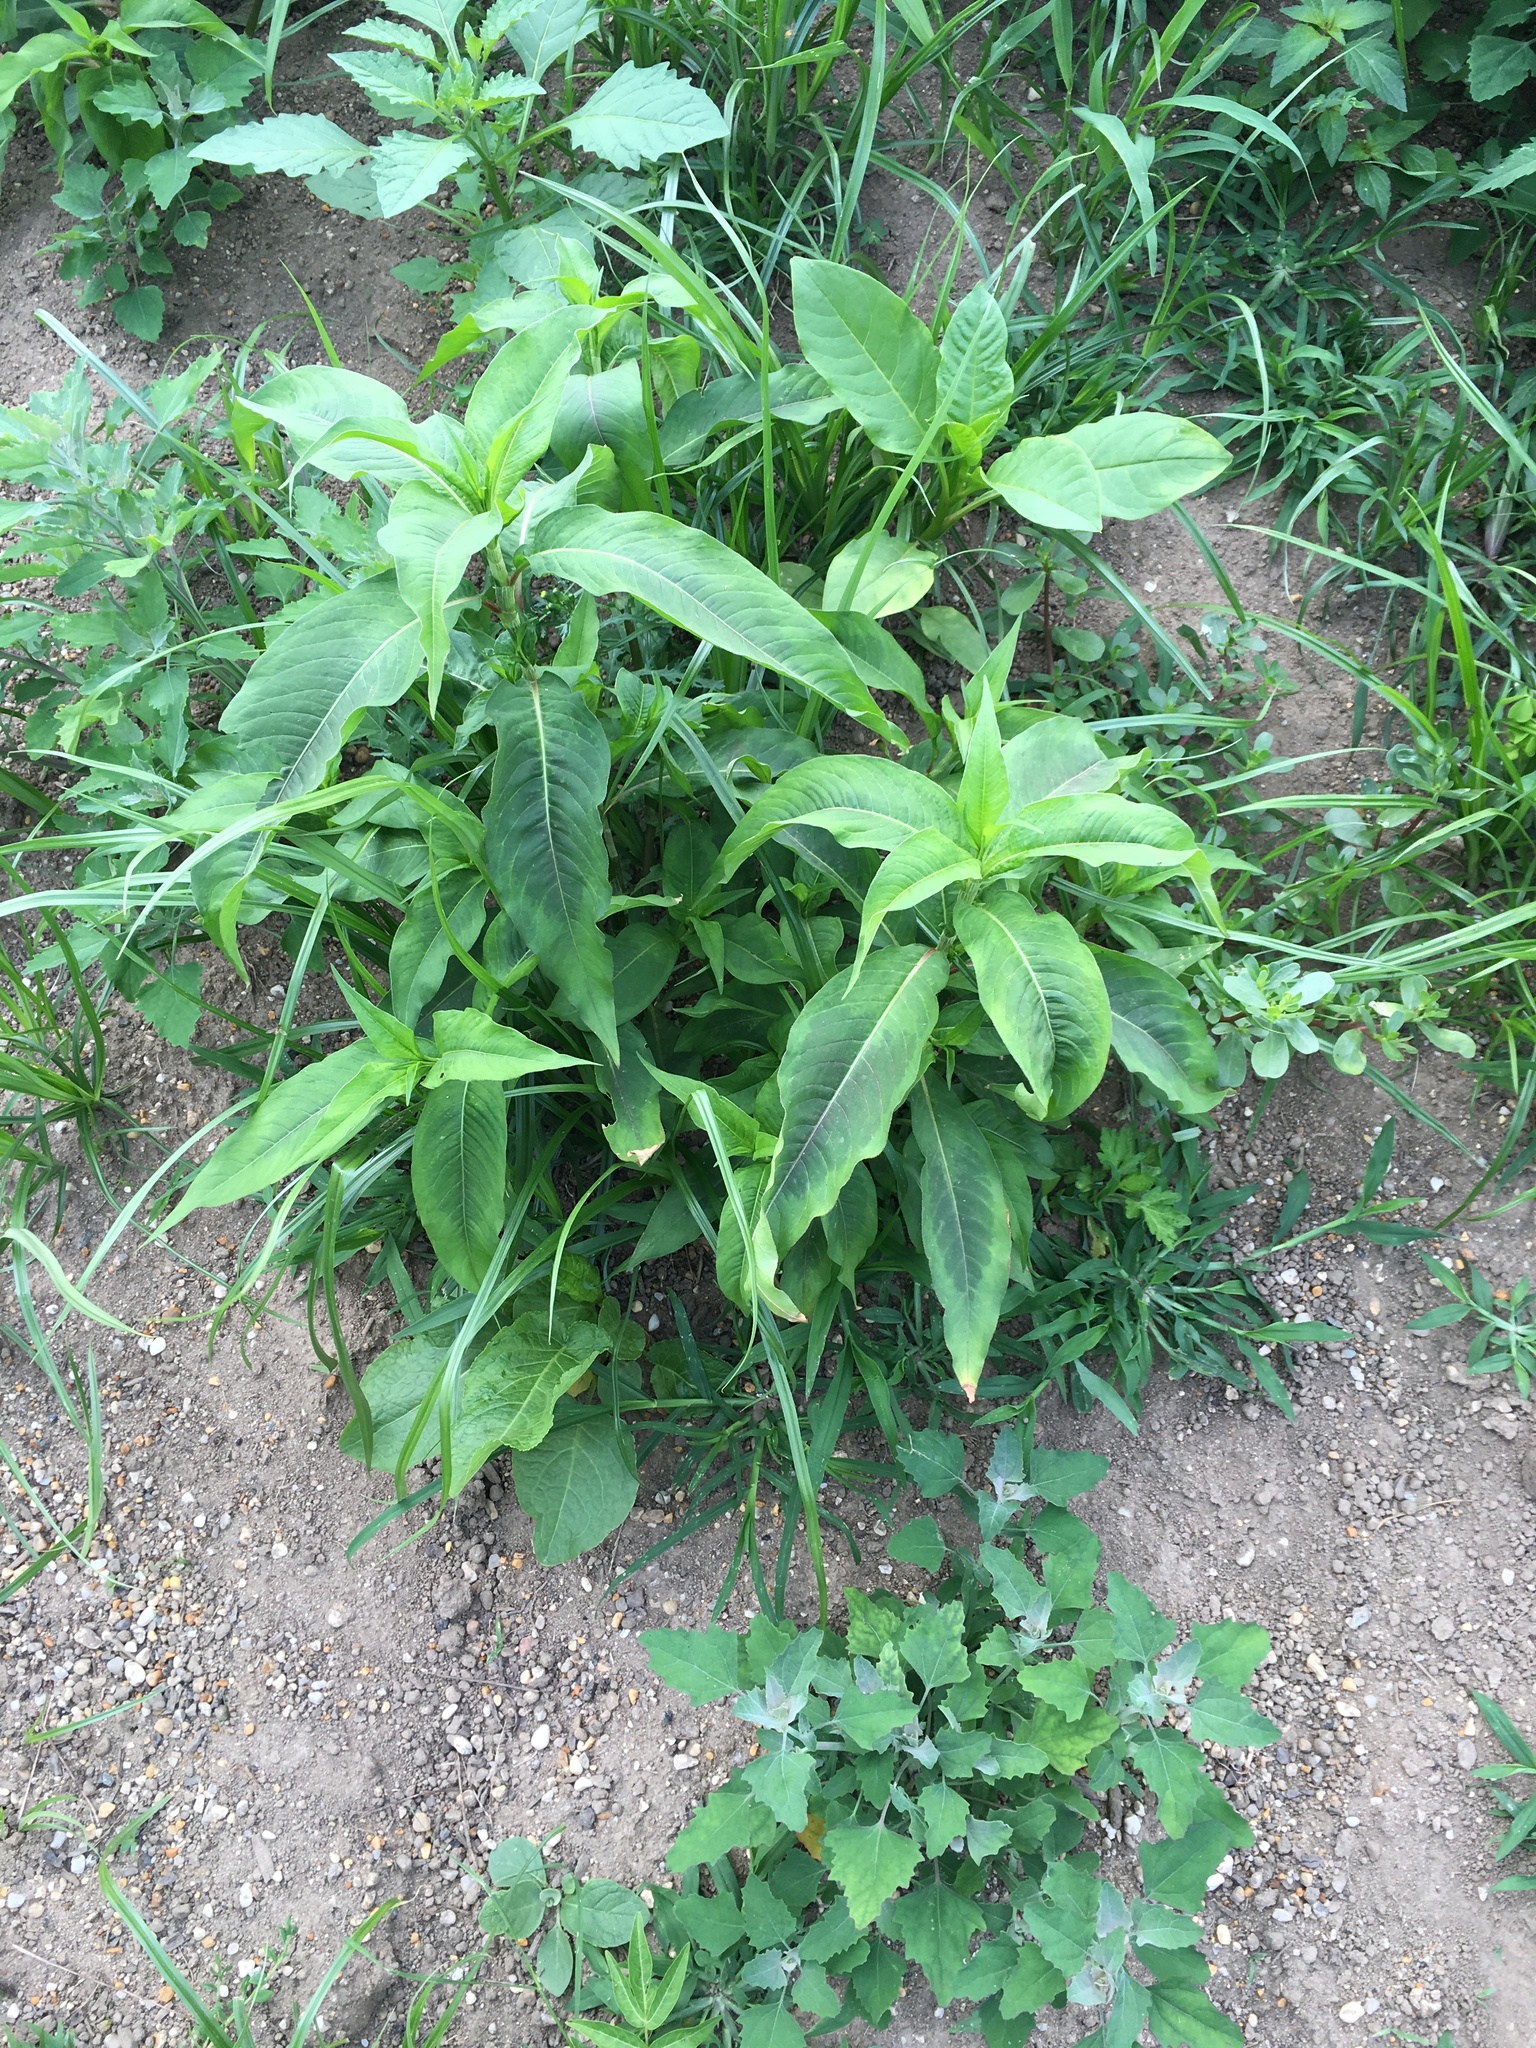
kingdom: Plantae
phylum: Tracheophyta
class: Magnoliopsida
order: Caryophyllales
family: Polygonaceae
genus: Persicaria
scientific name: Persicaria extremiorientalis
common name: Far-eastern smartweed
